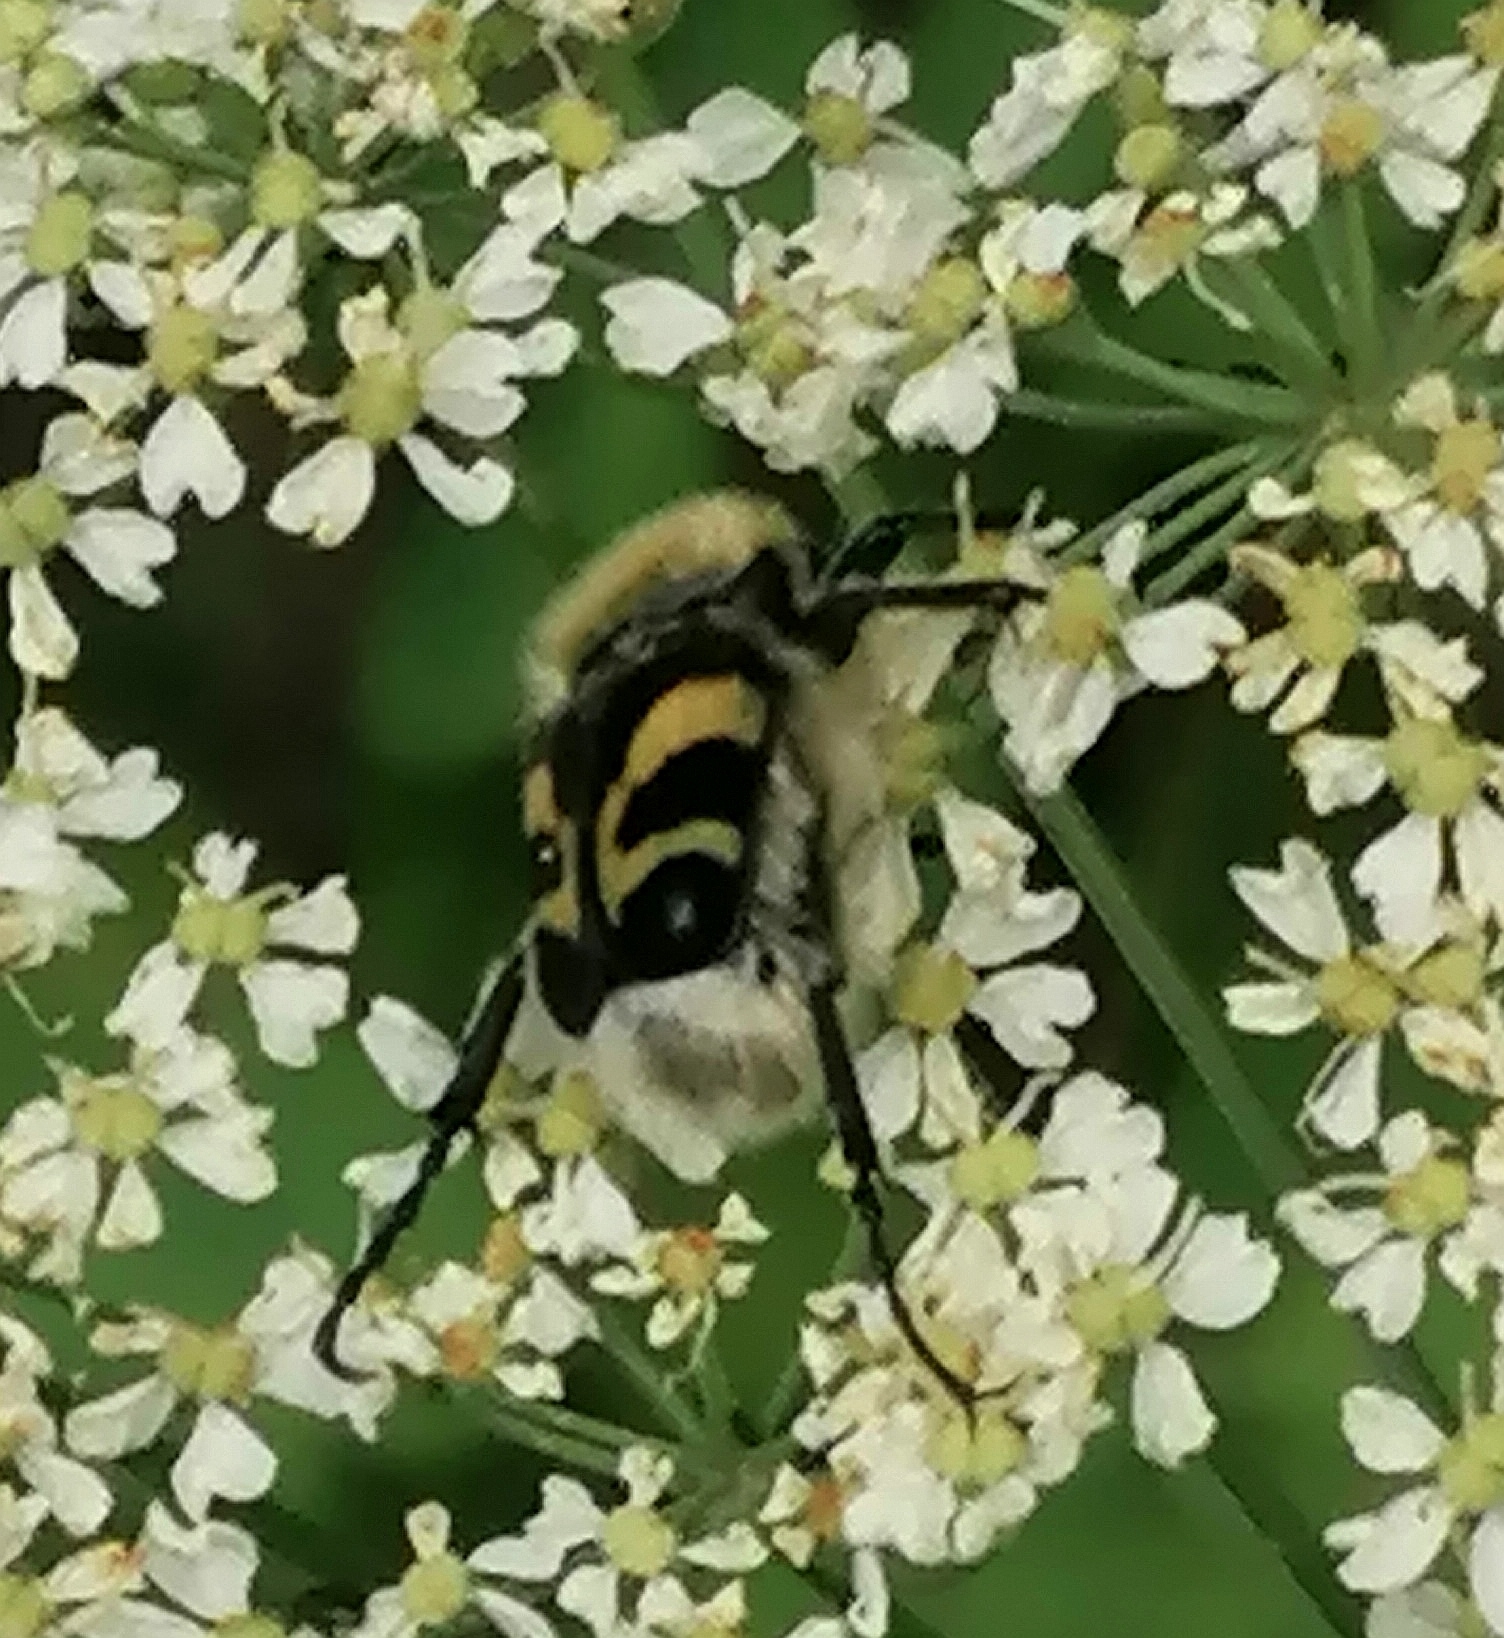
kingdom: Animalia
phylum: Arthropoda
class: Insecta
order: Coleoptera
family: Scarabaeidae
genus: Trichius
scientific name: Trichius fasciatus
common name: Bee beetle
